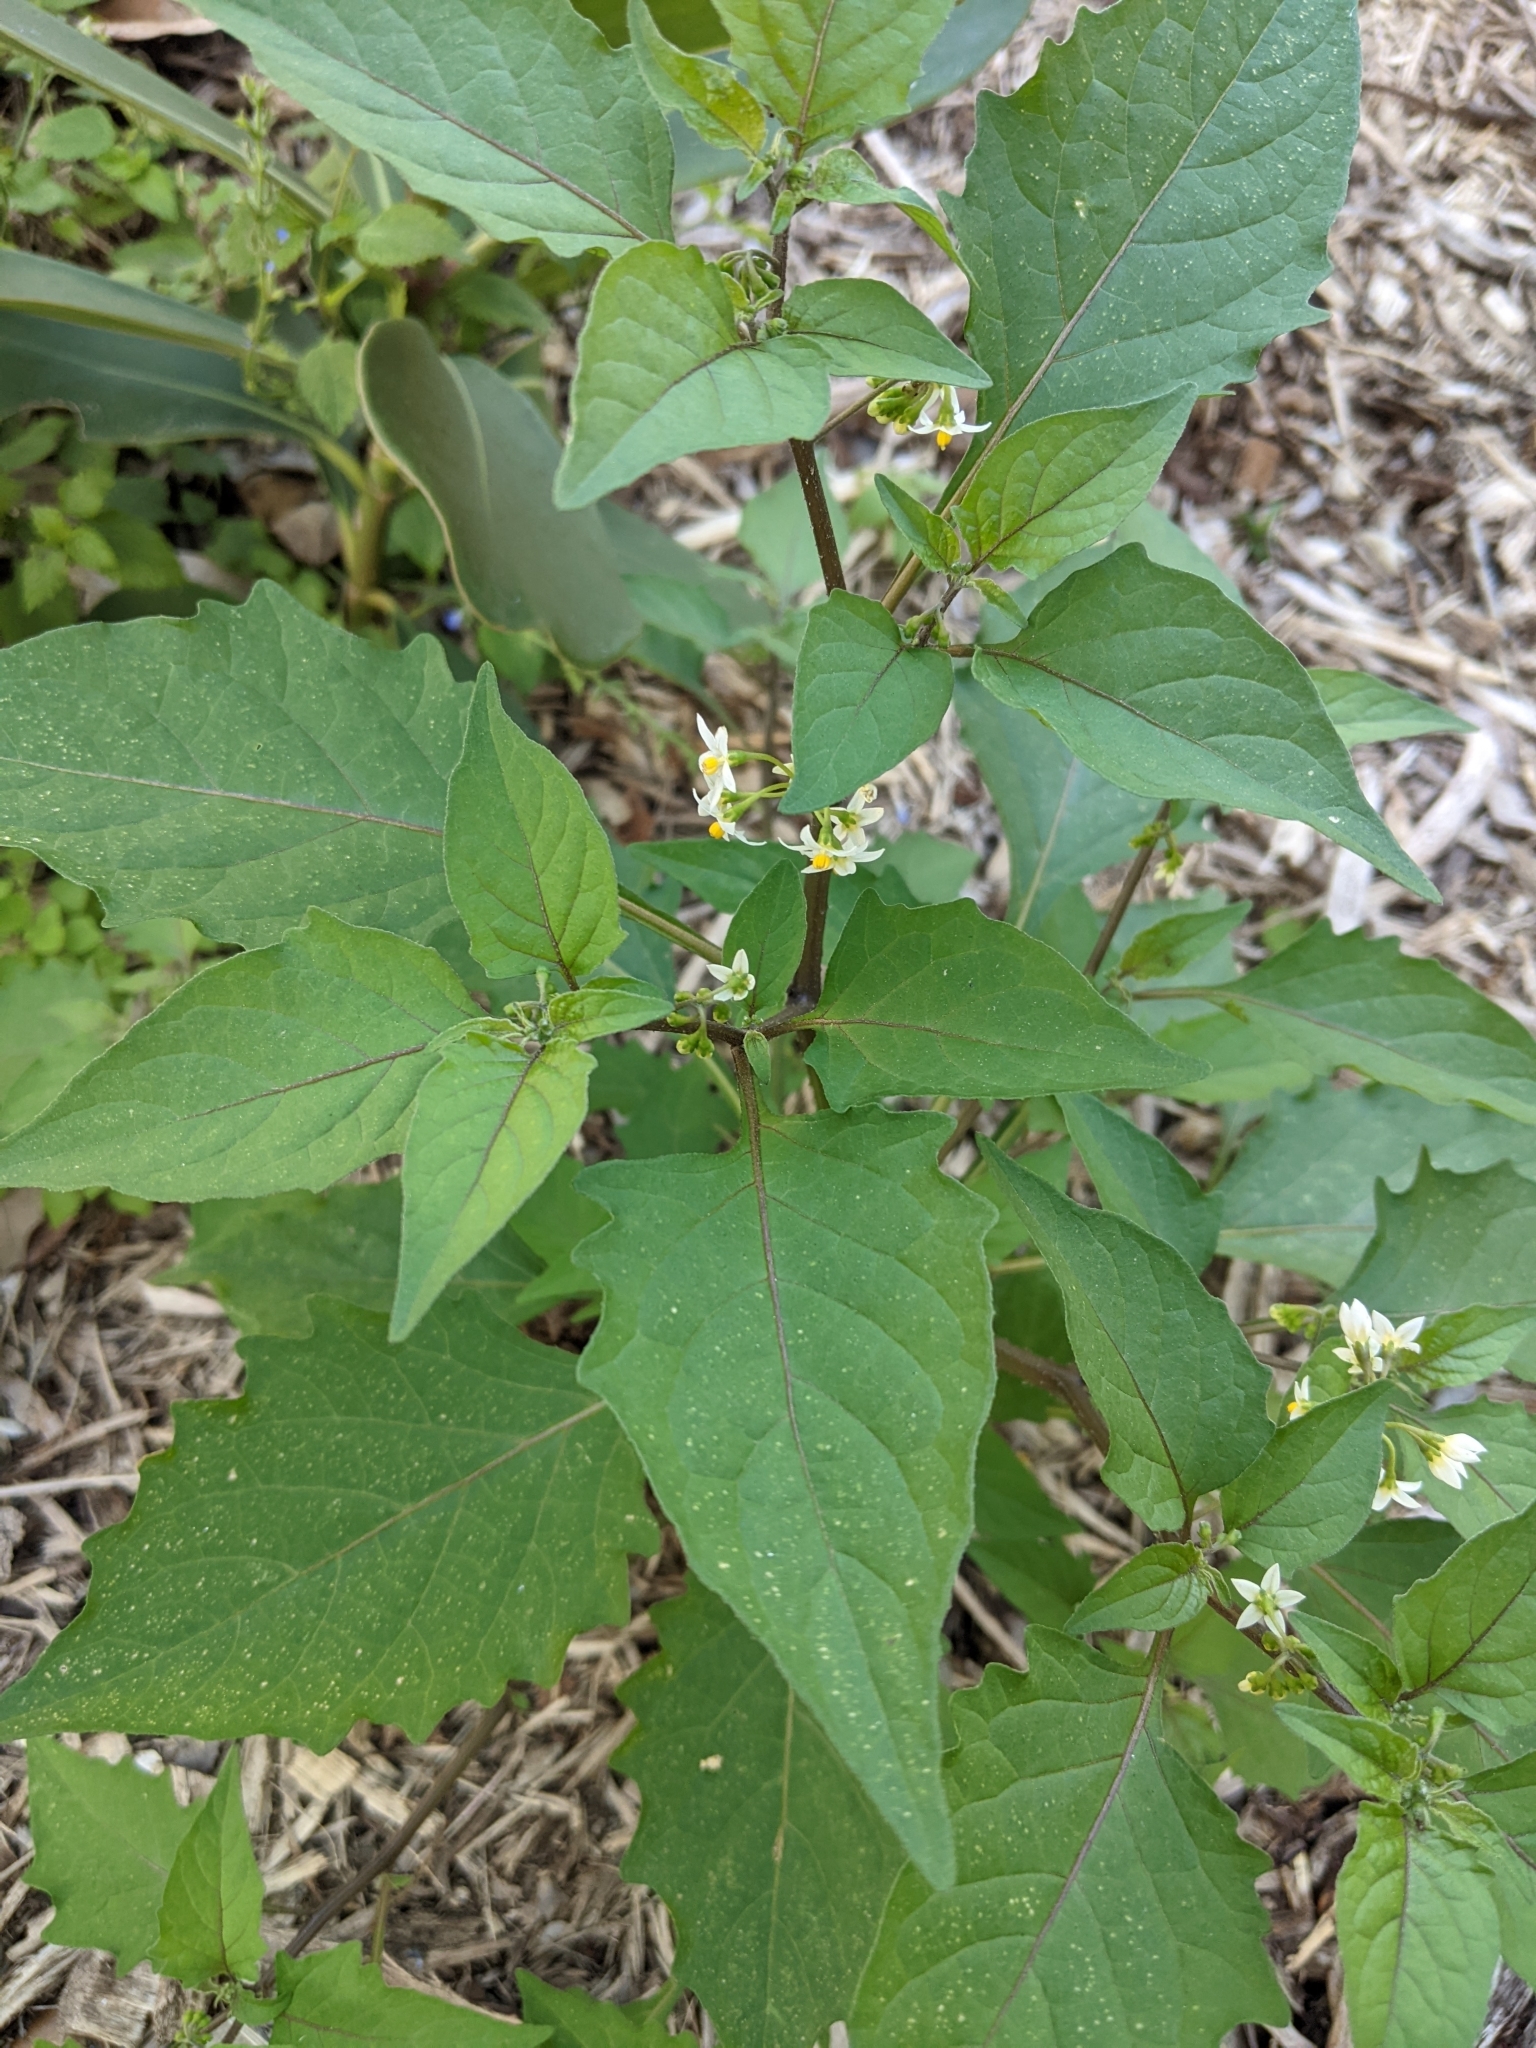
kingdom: Plantae
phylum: Tracheophyta
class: Magnoliopsida
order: Solanales
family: Solanaceae
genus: Solanum
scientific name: Solanum americanum
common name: American black nightshade
